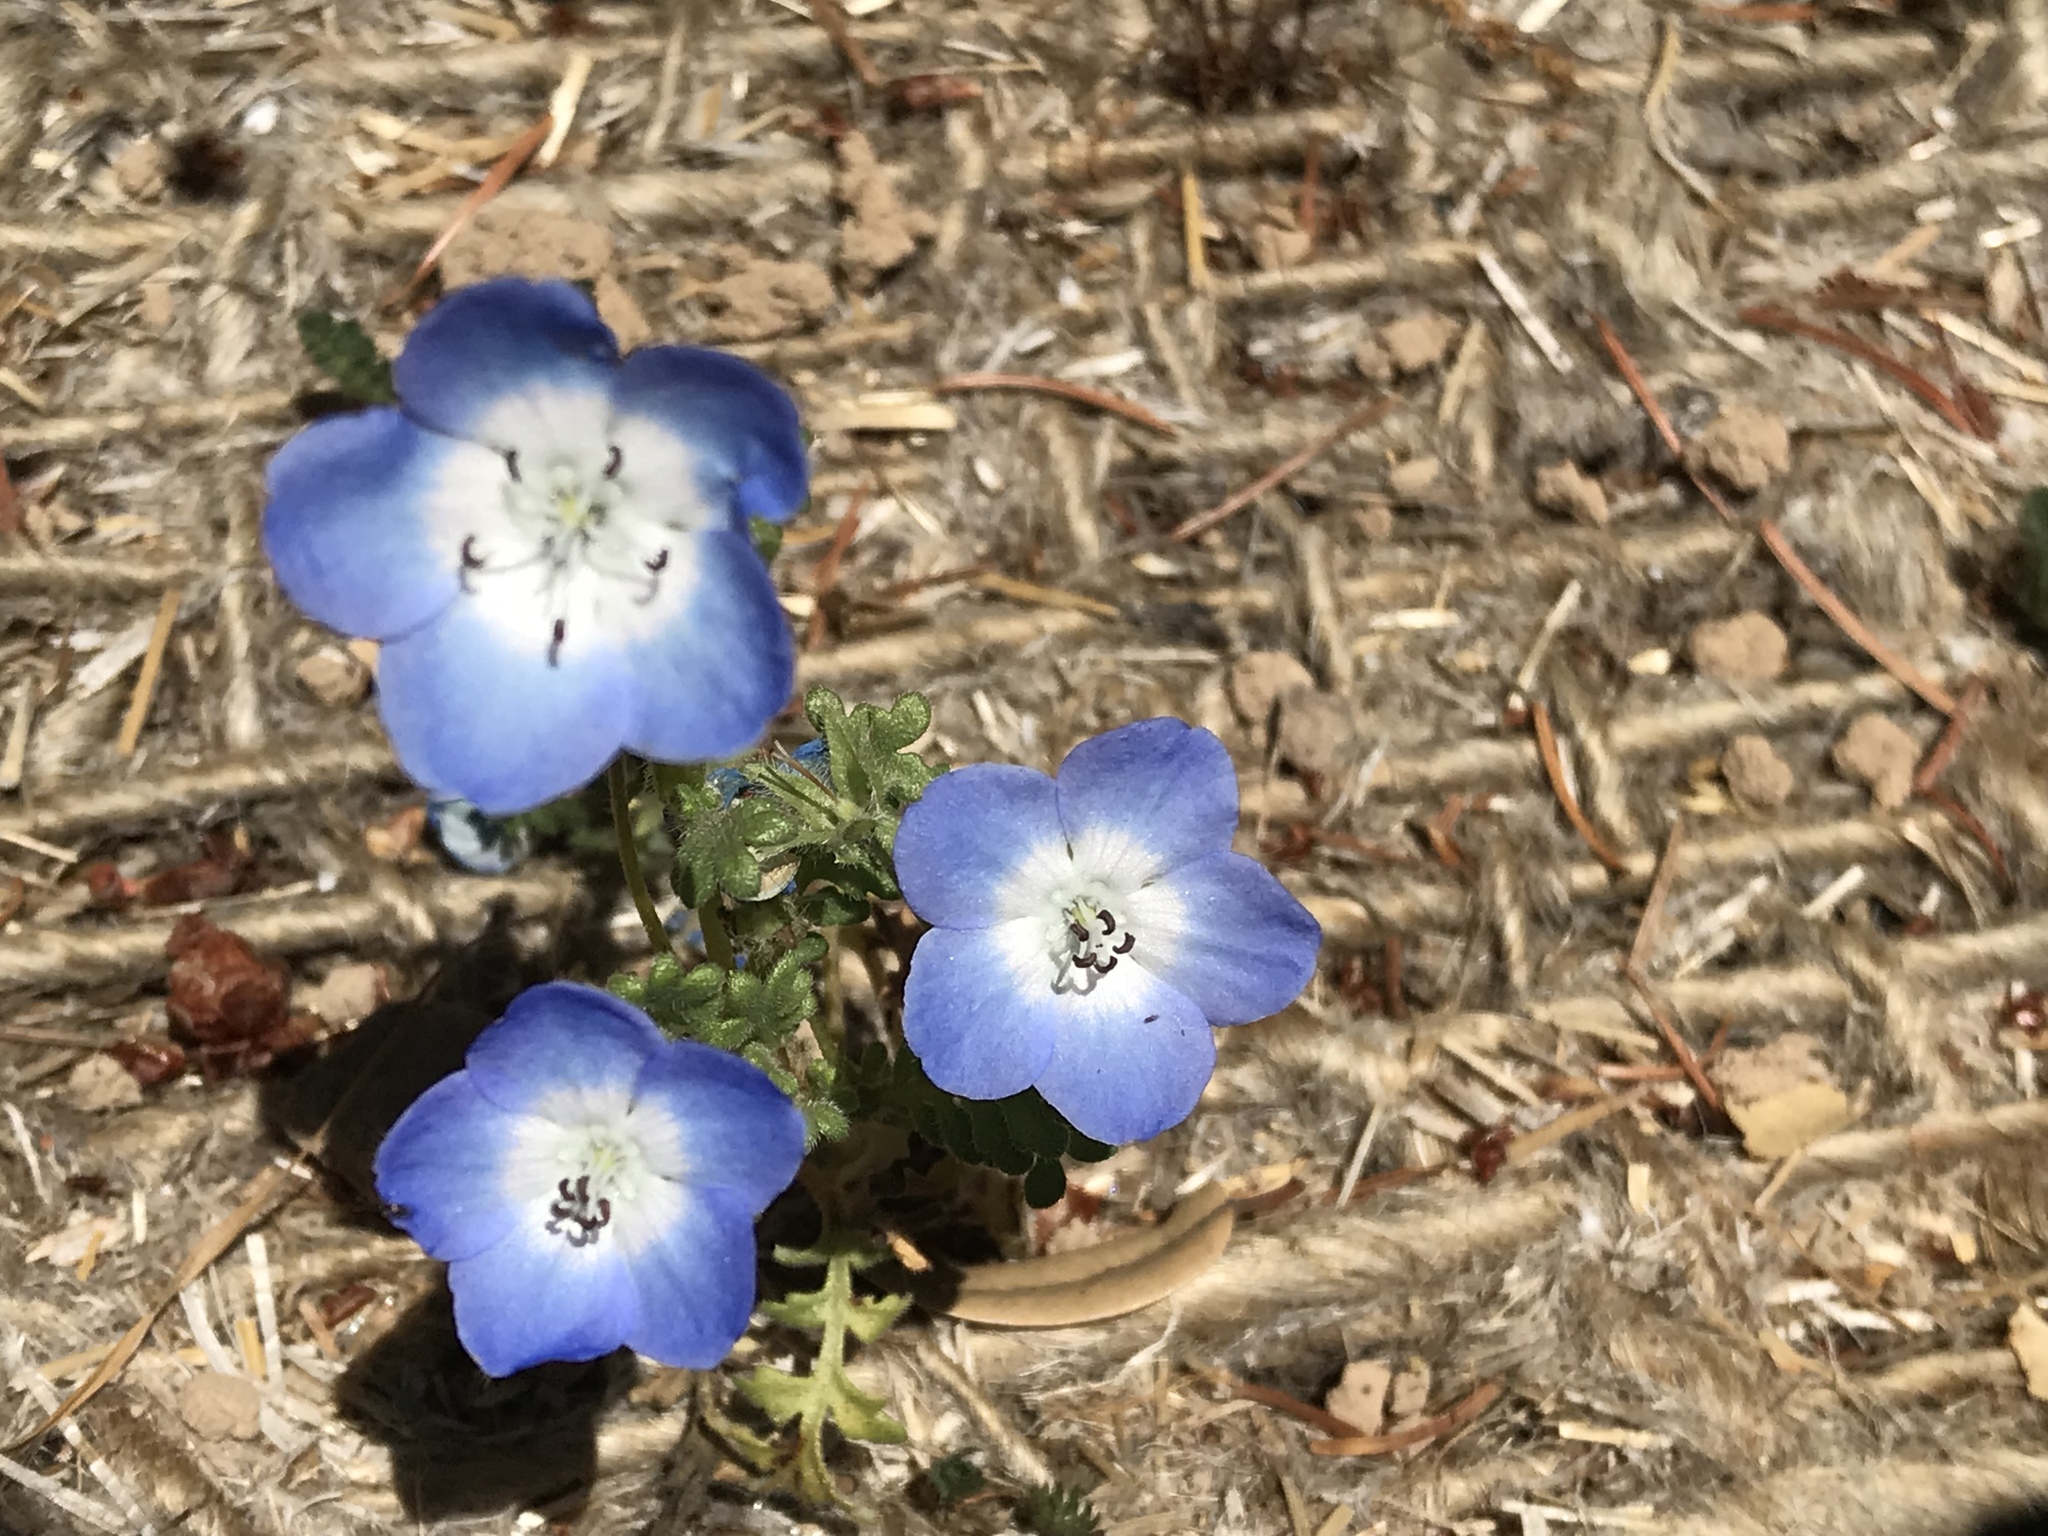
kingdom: Plantae
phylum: Tracheophyta
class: Magnoliopsida
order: Boraginales
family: Hydrophyllaceae
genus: Nemophila
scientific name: Nemophila menziesii
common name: Baby's-blue-eyes
